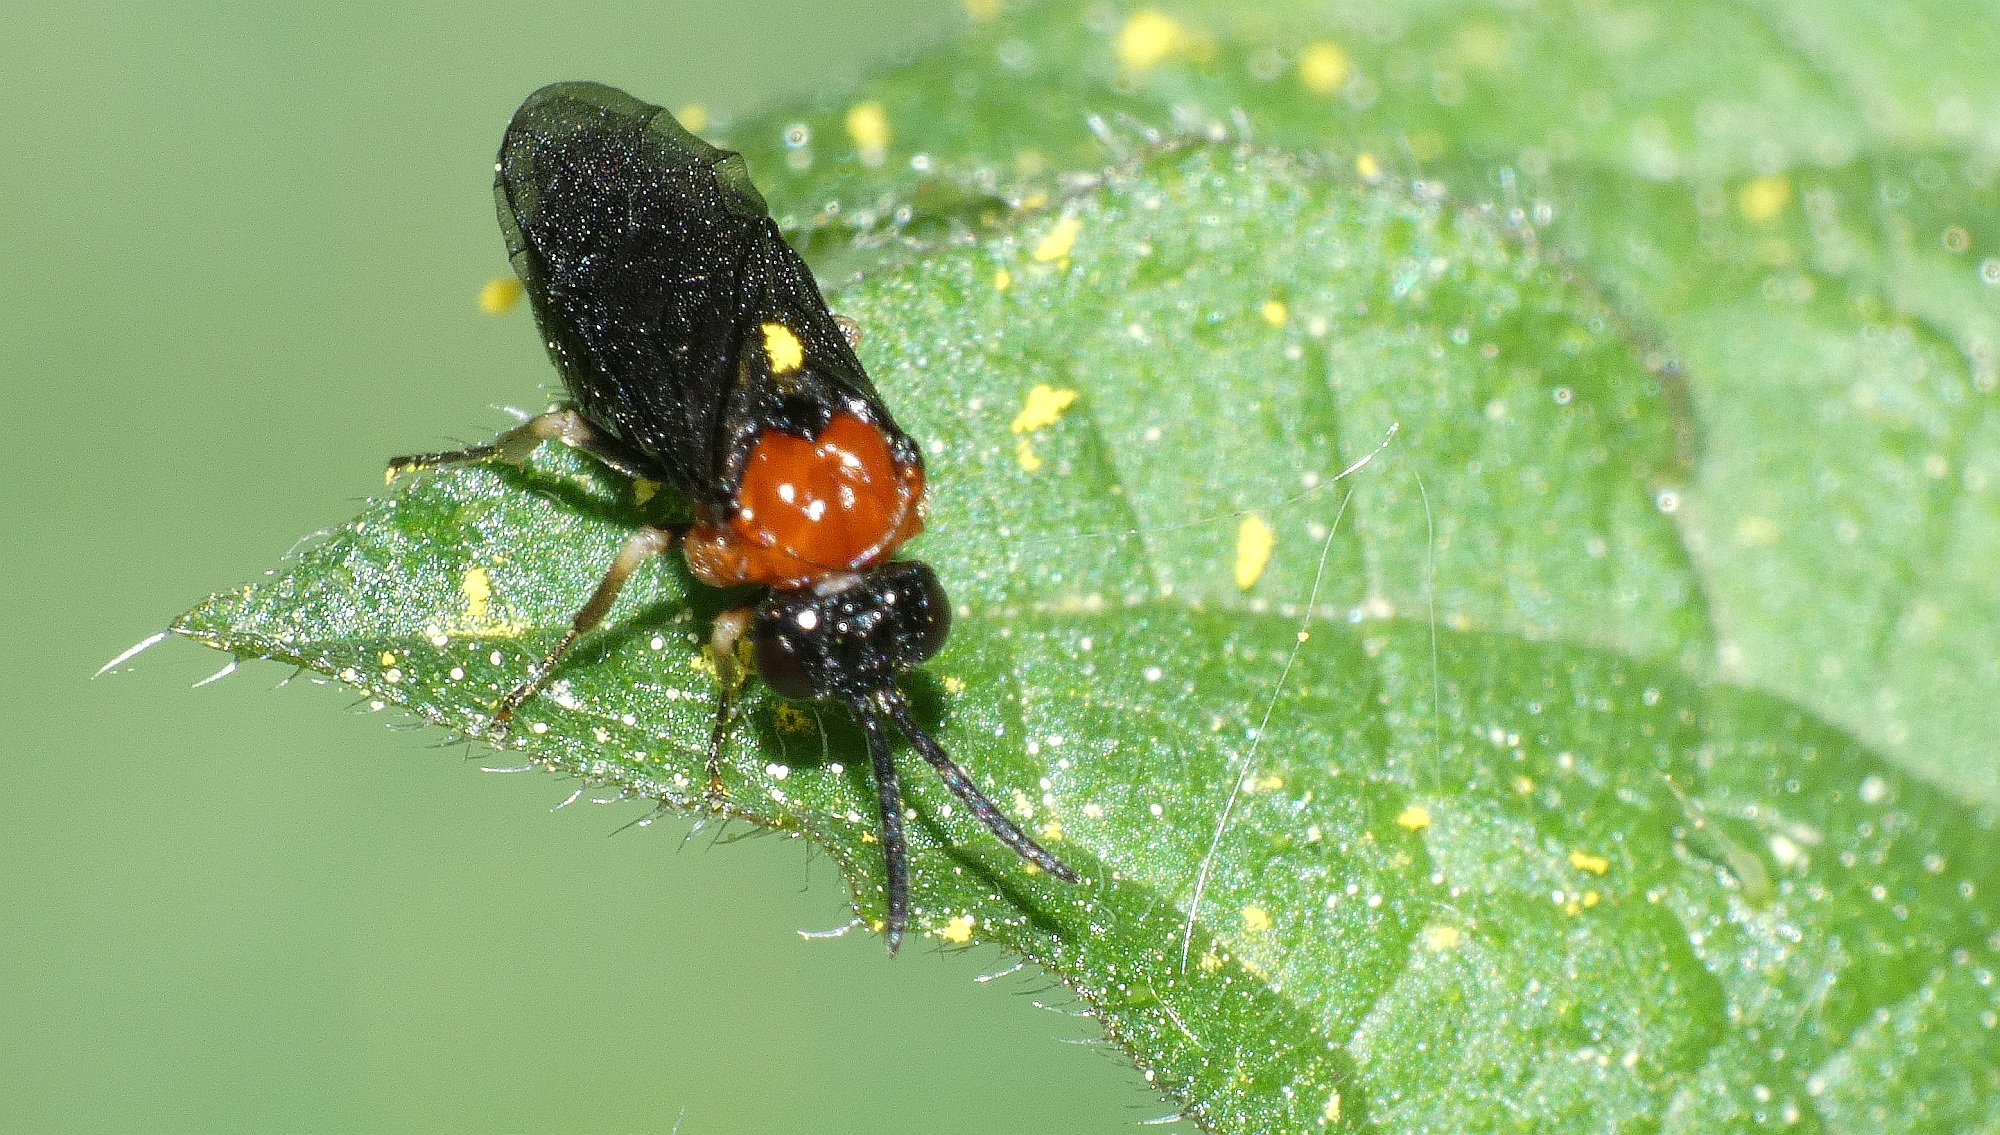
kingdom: Animalia
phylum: Arthropoda
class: Insecta
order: Hymenoptera
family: Tenthredinidae
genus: Eutomostethus
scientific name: Eutomostethus ephippium
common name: Tenthredid wasp
